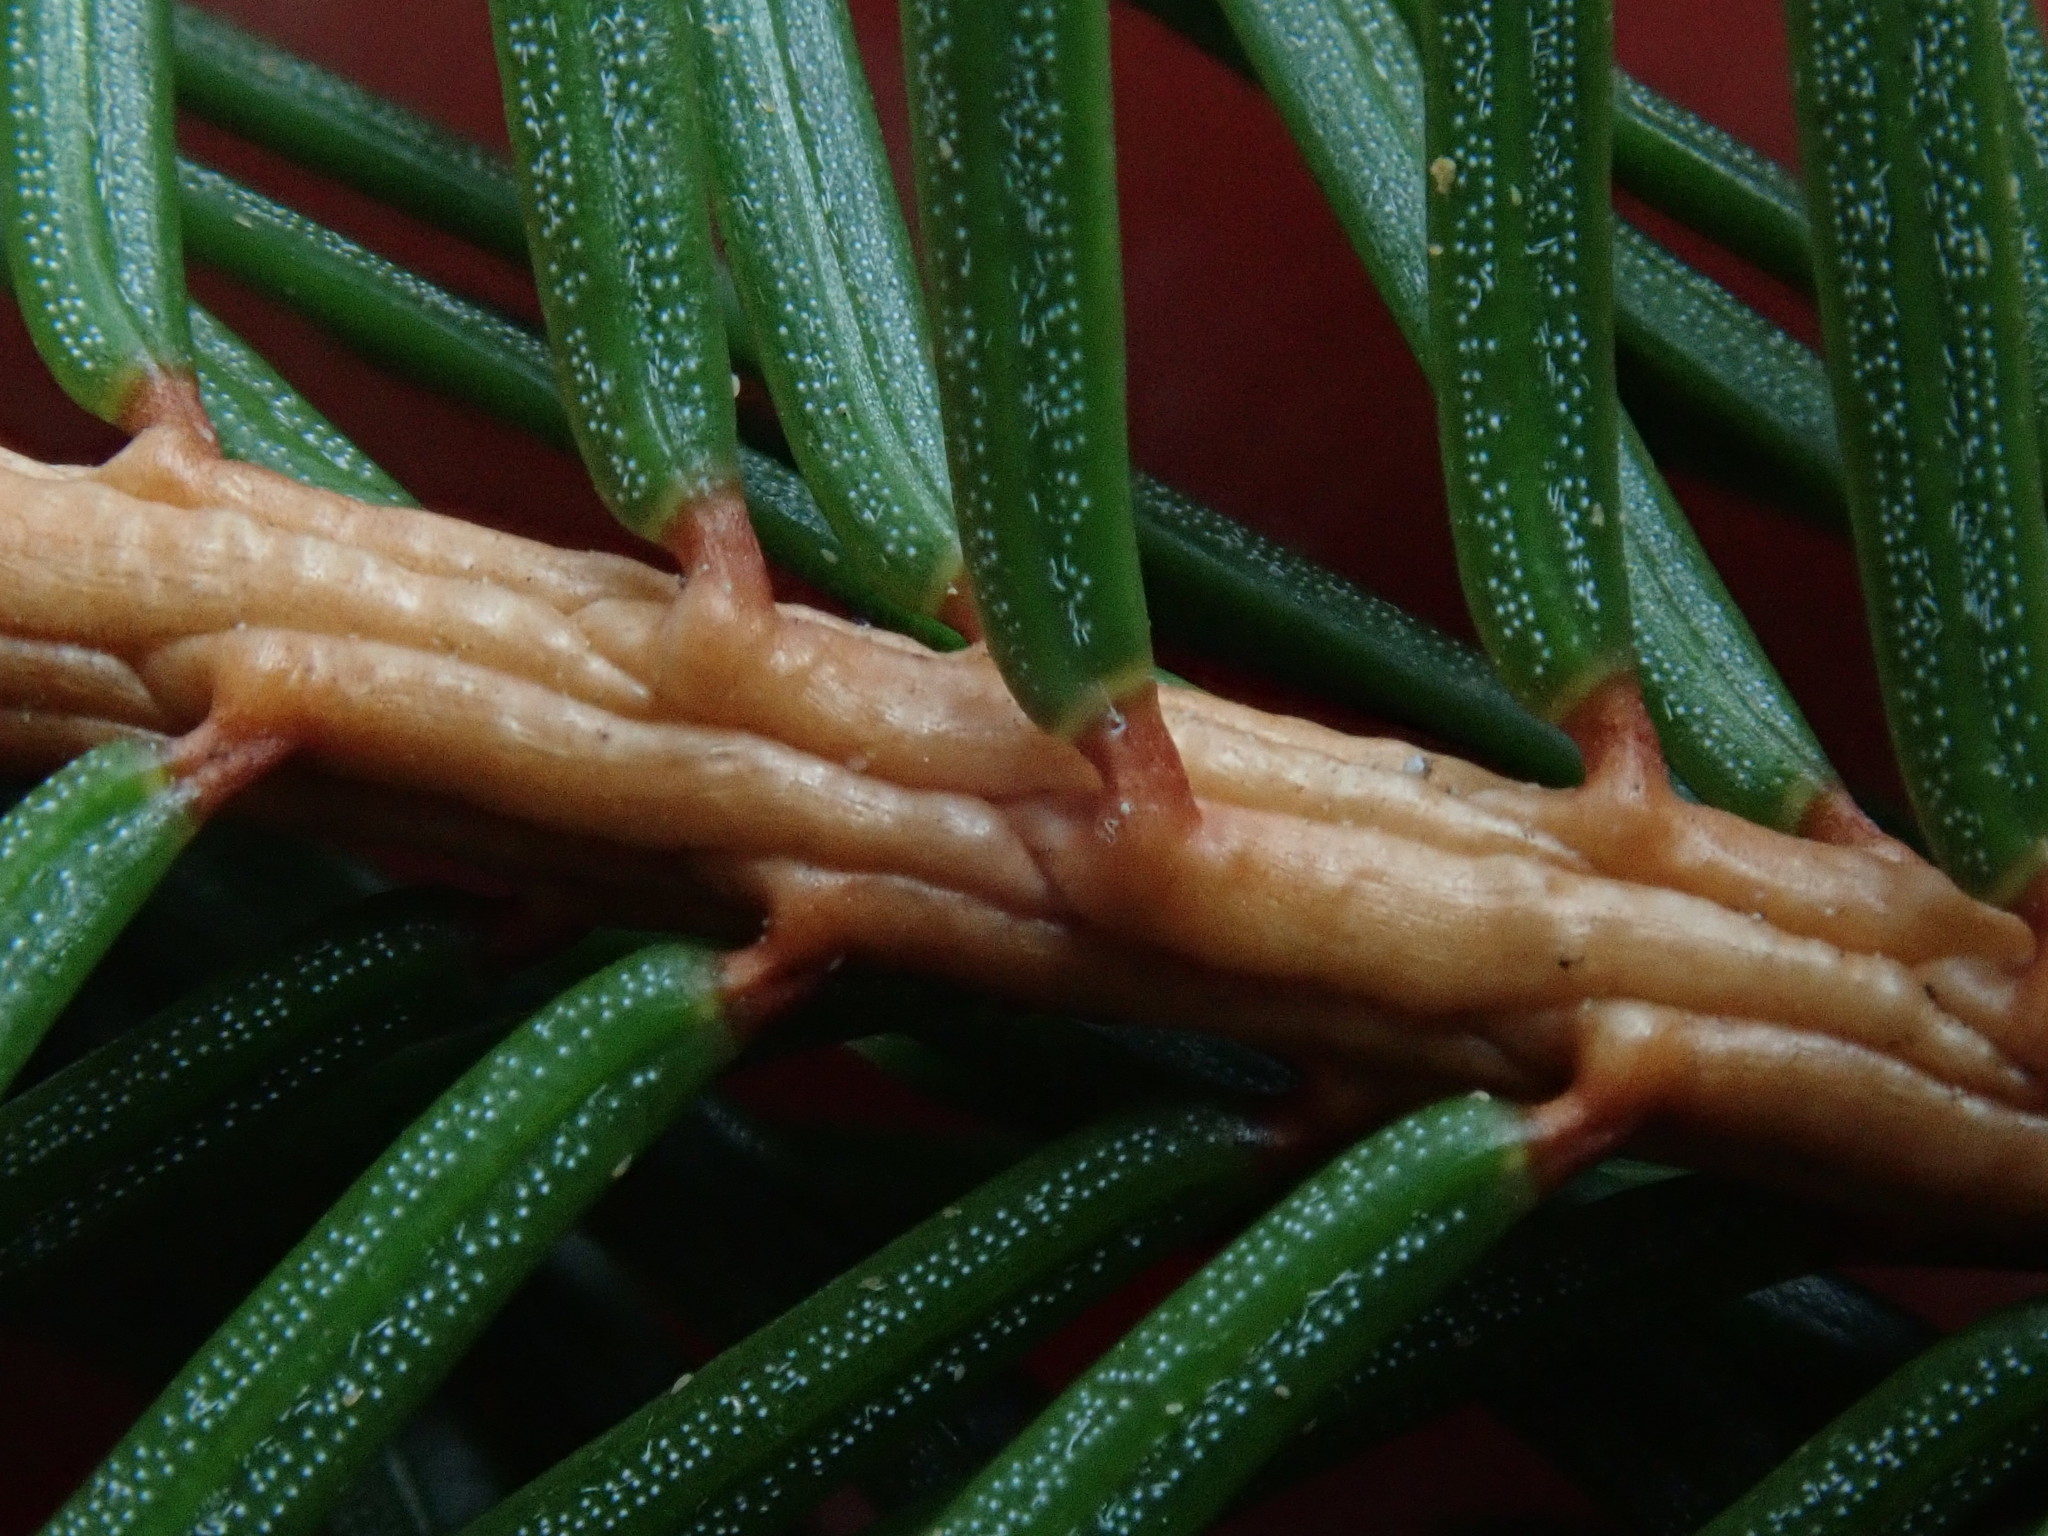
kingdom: Plantae
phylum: Tracheophyta
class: Pinopsida
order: Pinales
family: Pinaceae
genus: Picea
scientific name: Picea abies
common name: Norway spruce
